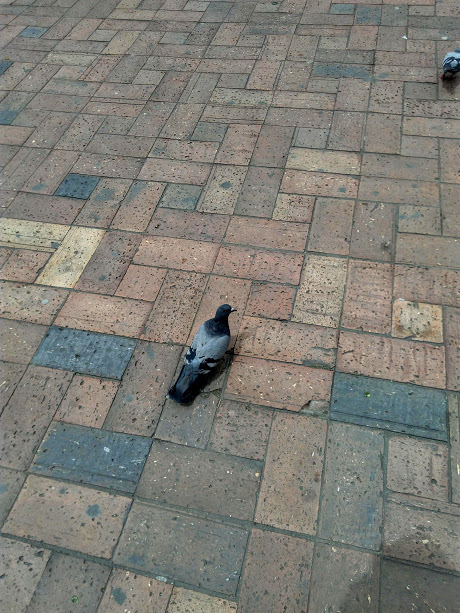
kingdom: Animalia
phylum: Chordata
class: Aves
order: Columbiformes
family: Columbidae
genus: Columba
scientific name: Columba livia
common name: Rock pigeon
